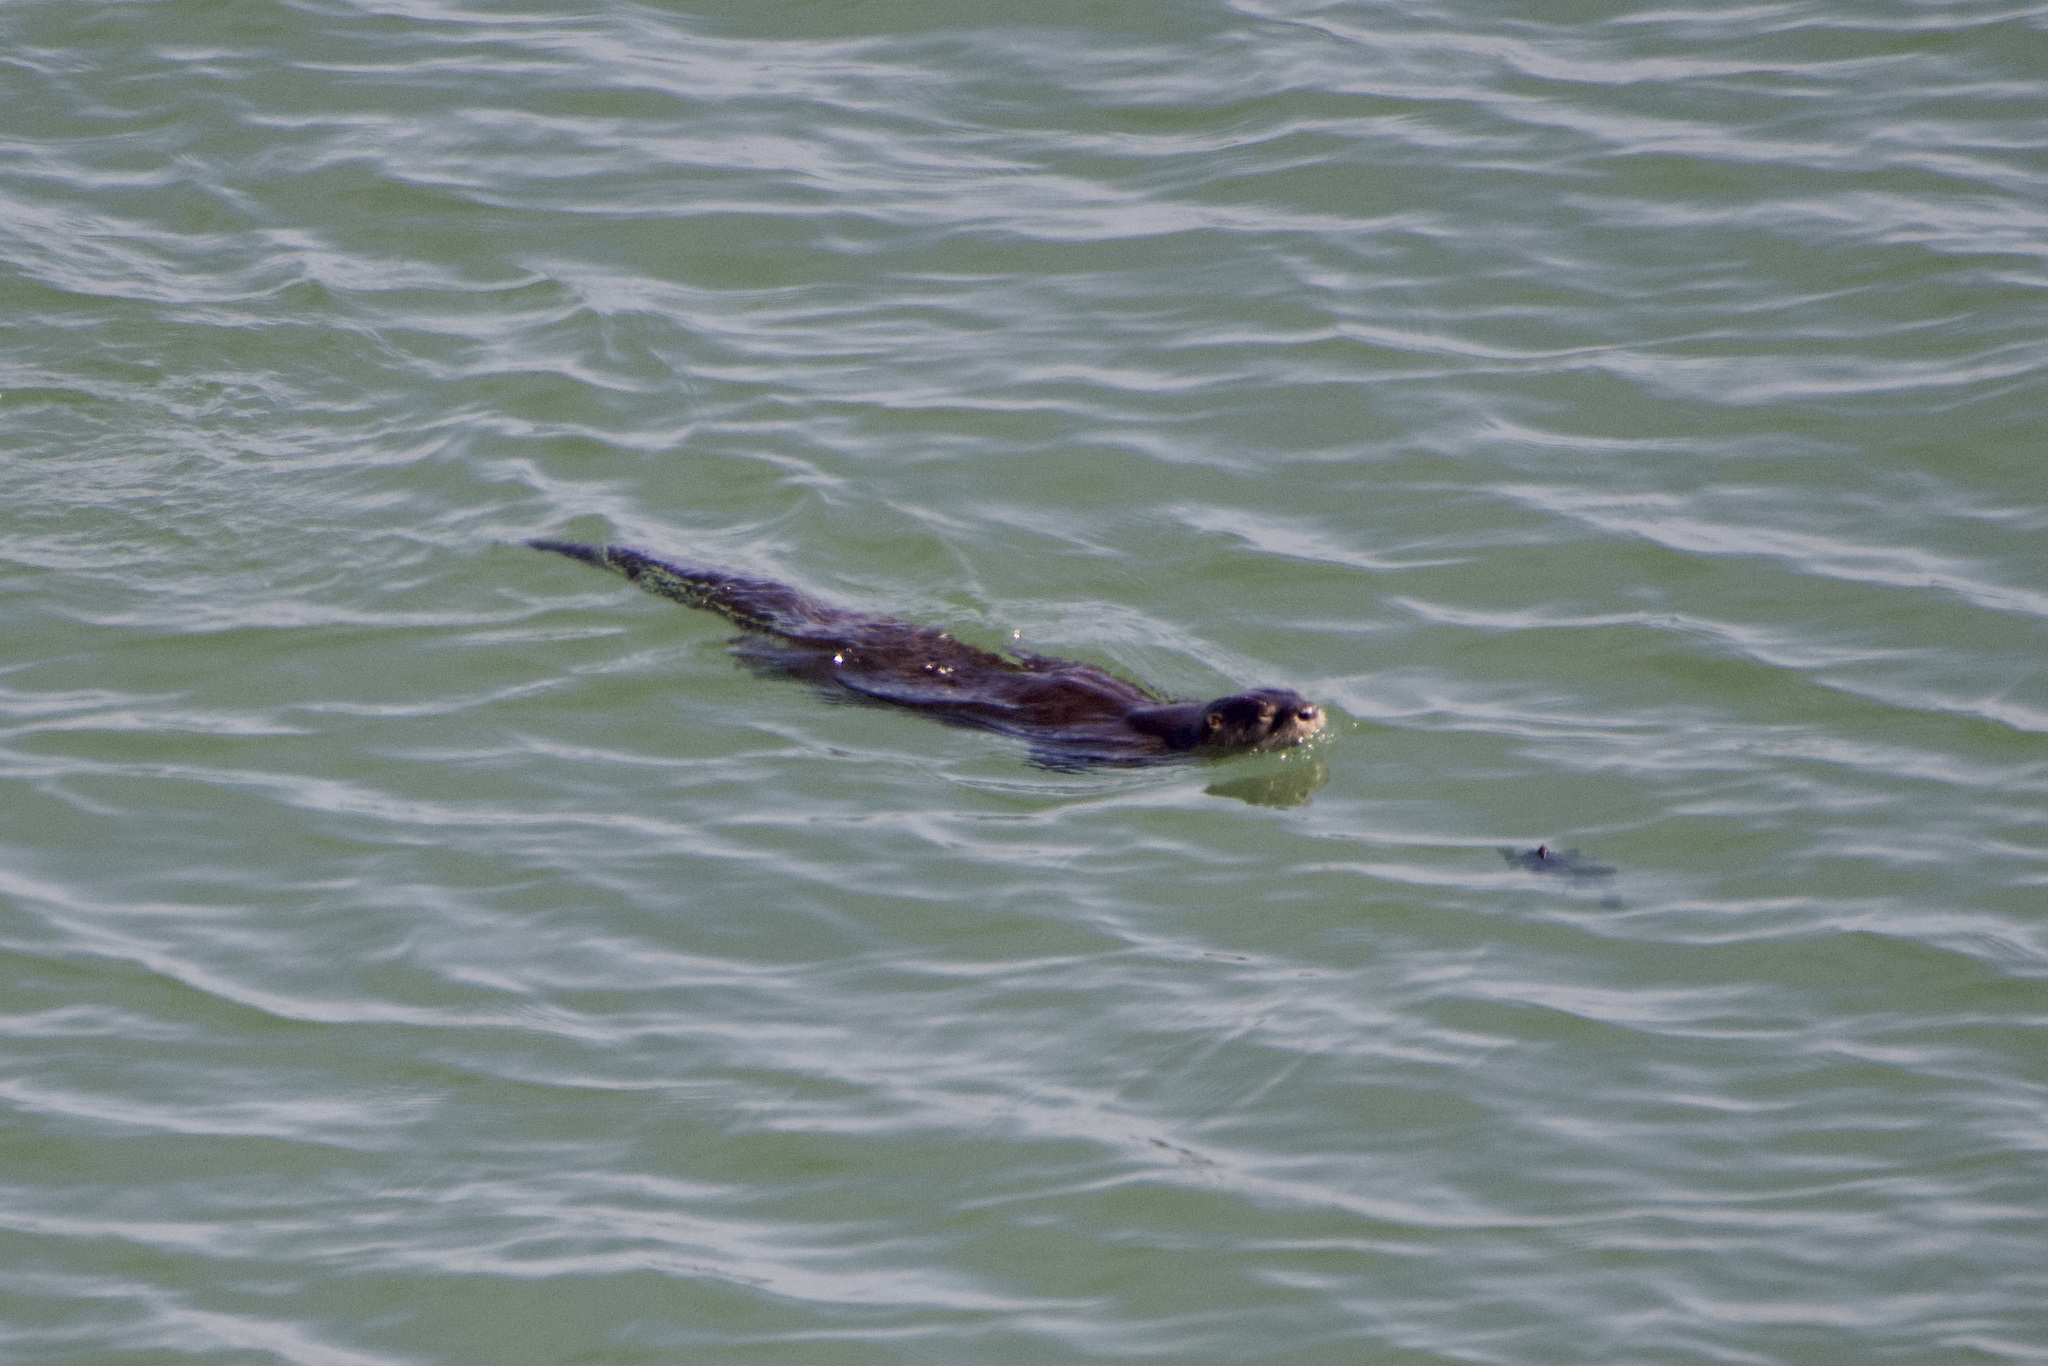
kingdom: Animalia
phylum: Chordata
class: Mammalia
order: Carnivora
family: Mustelidae
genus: Lontra
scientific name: Lontra canadensis
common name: North american river otter
